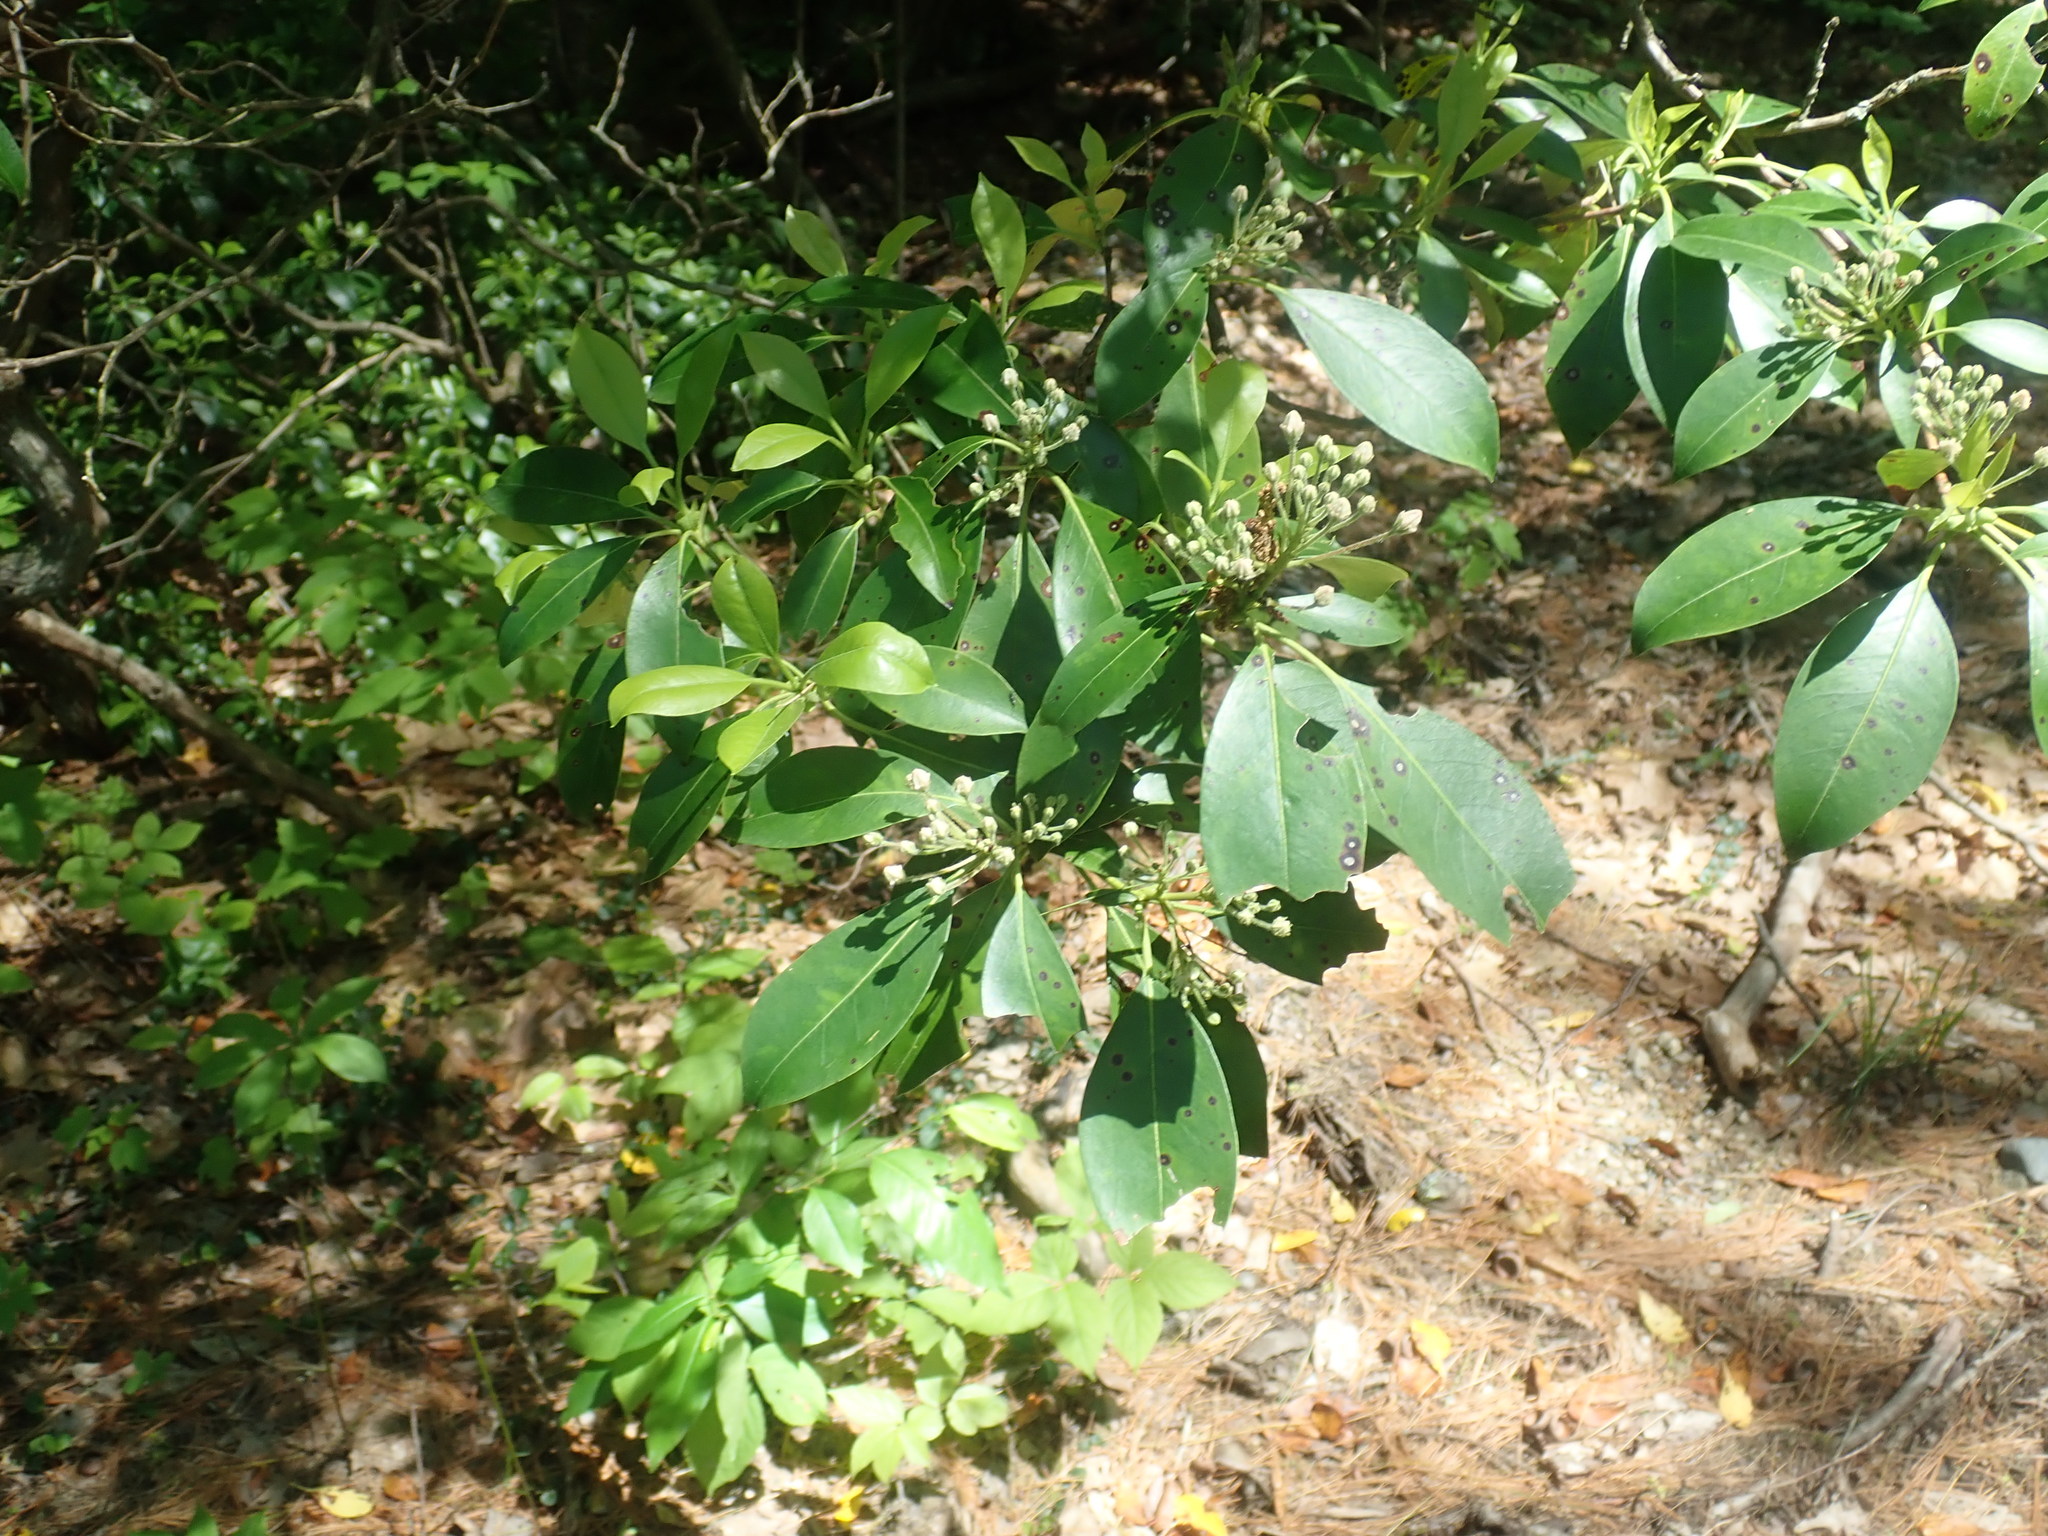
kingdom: Plantae
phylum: Tracheophyta
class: Magnoliopsida
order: Ericales
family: Ericaceae
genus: Kalmia
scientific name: Kalmia latifolia
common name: Mountain-laurel
